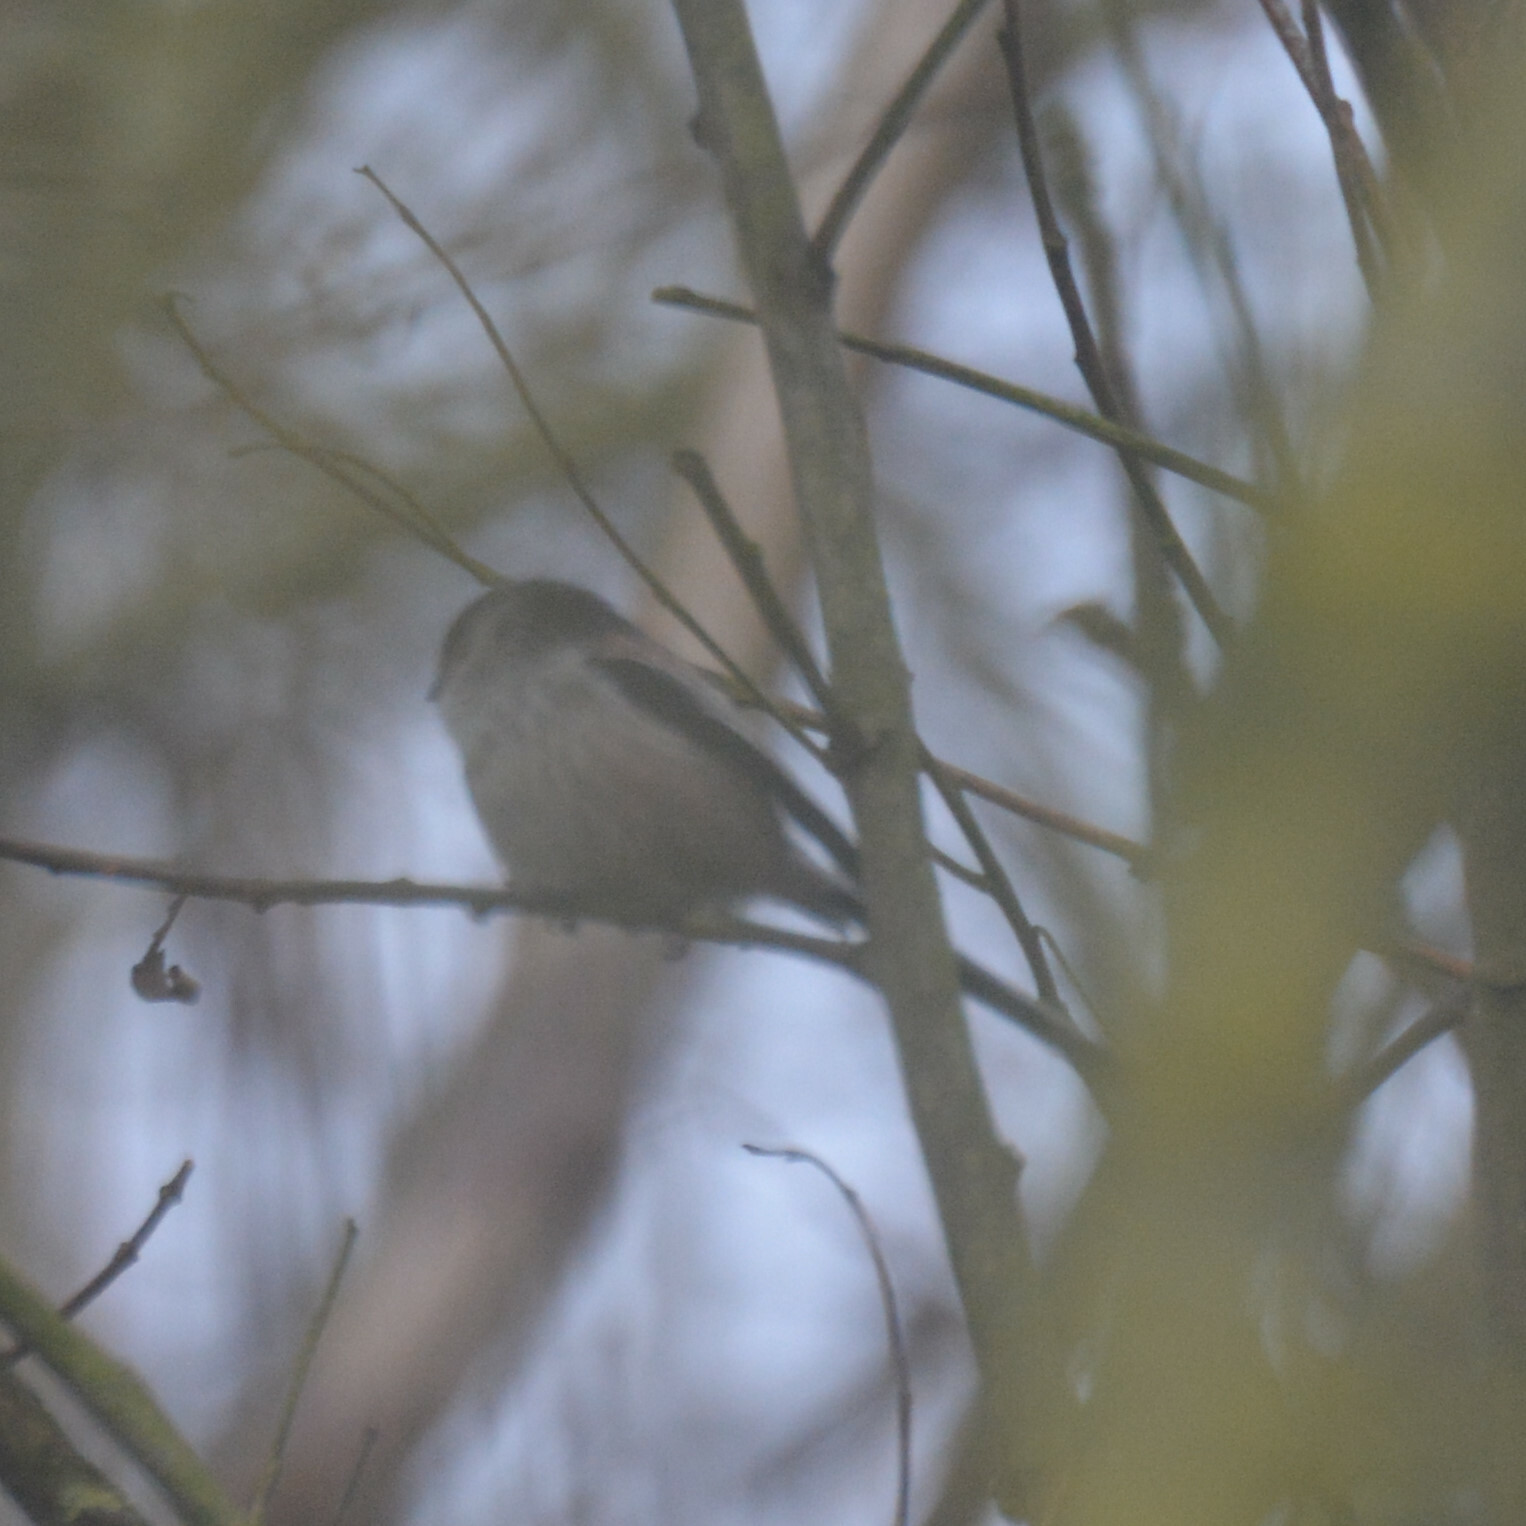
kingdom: Animalia
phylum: Chordata
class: Aves
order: Passeriformes
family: Aegithalidae
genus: Aegithalos
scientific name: Aegithalos caudatus
